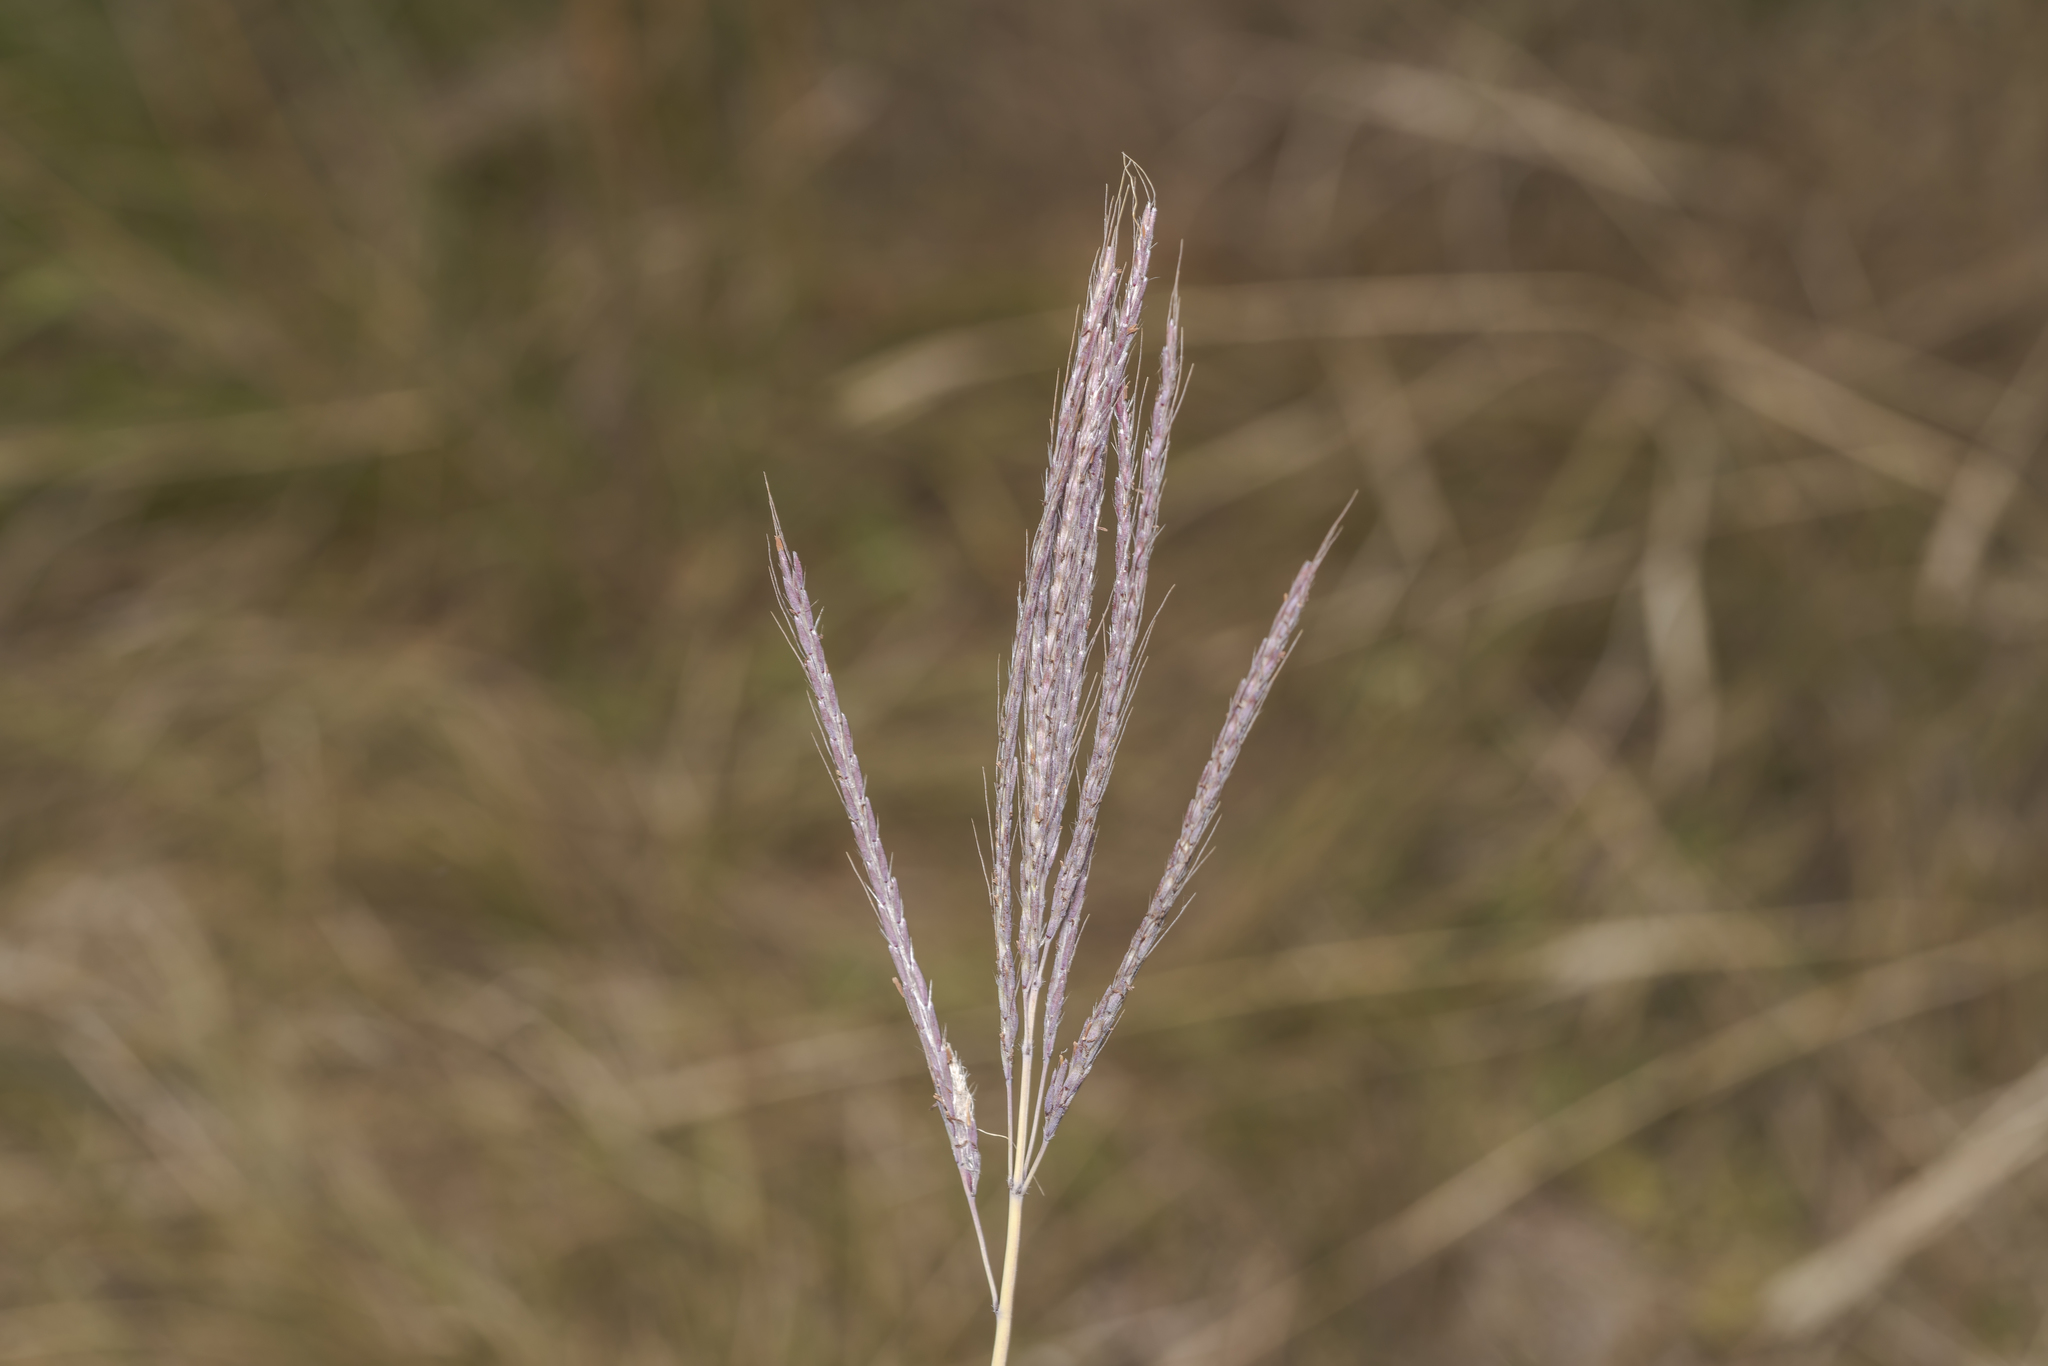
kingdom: Plantae
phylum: Tracheophyta
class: Liliopsida
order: Poales
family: Poaceae
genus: Bothriochloa
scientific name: Bothriochloa ischaemum
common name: Yellow bluestem
